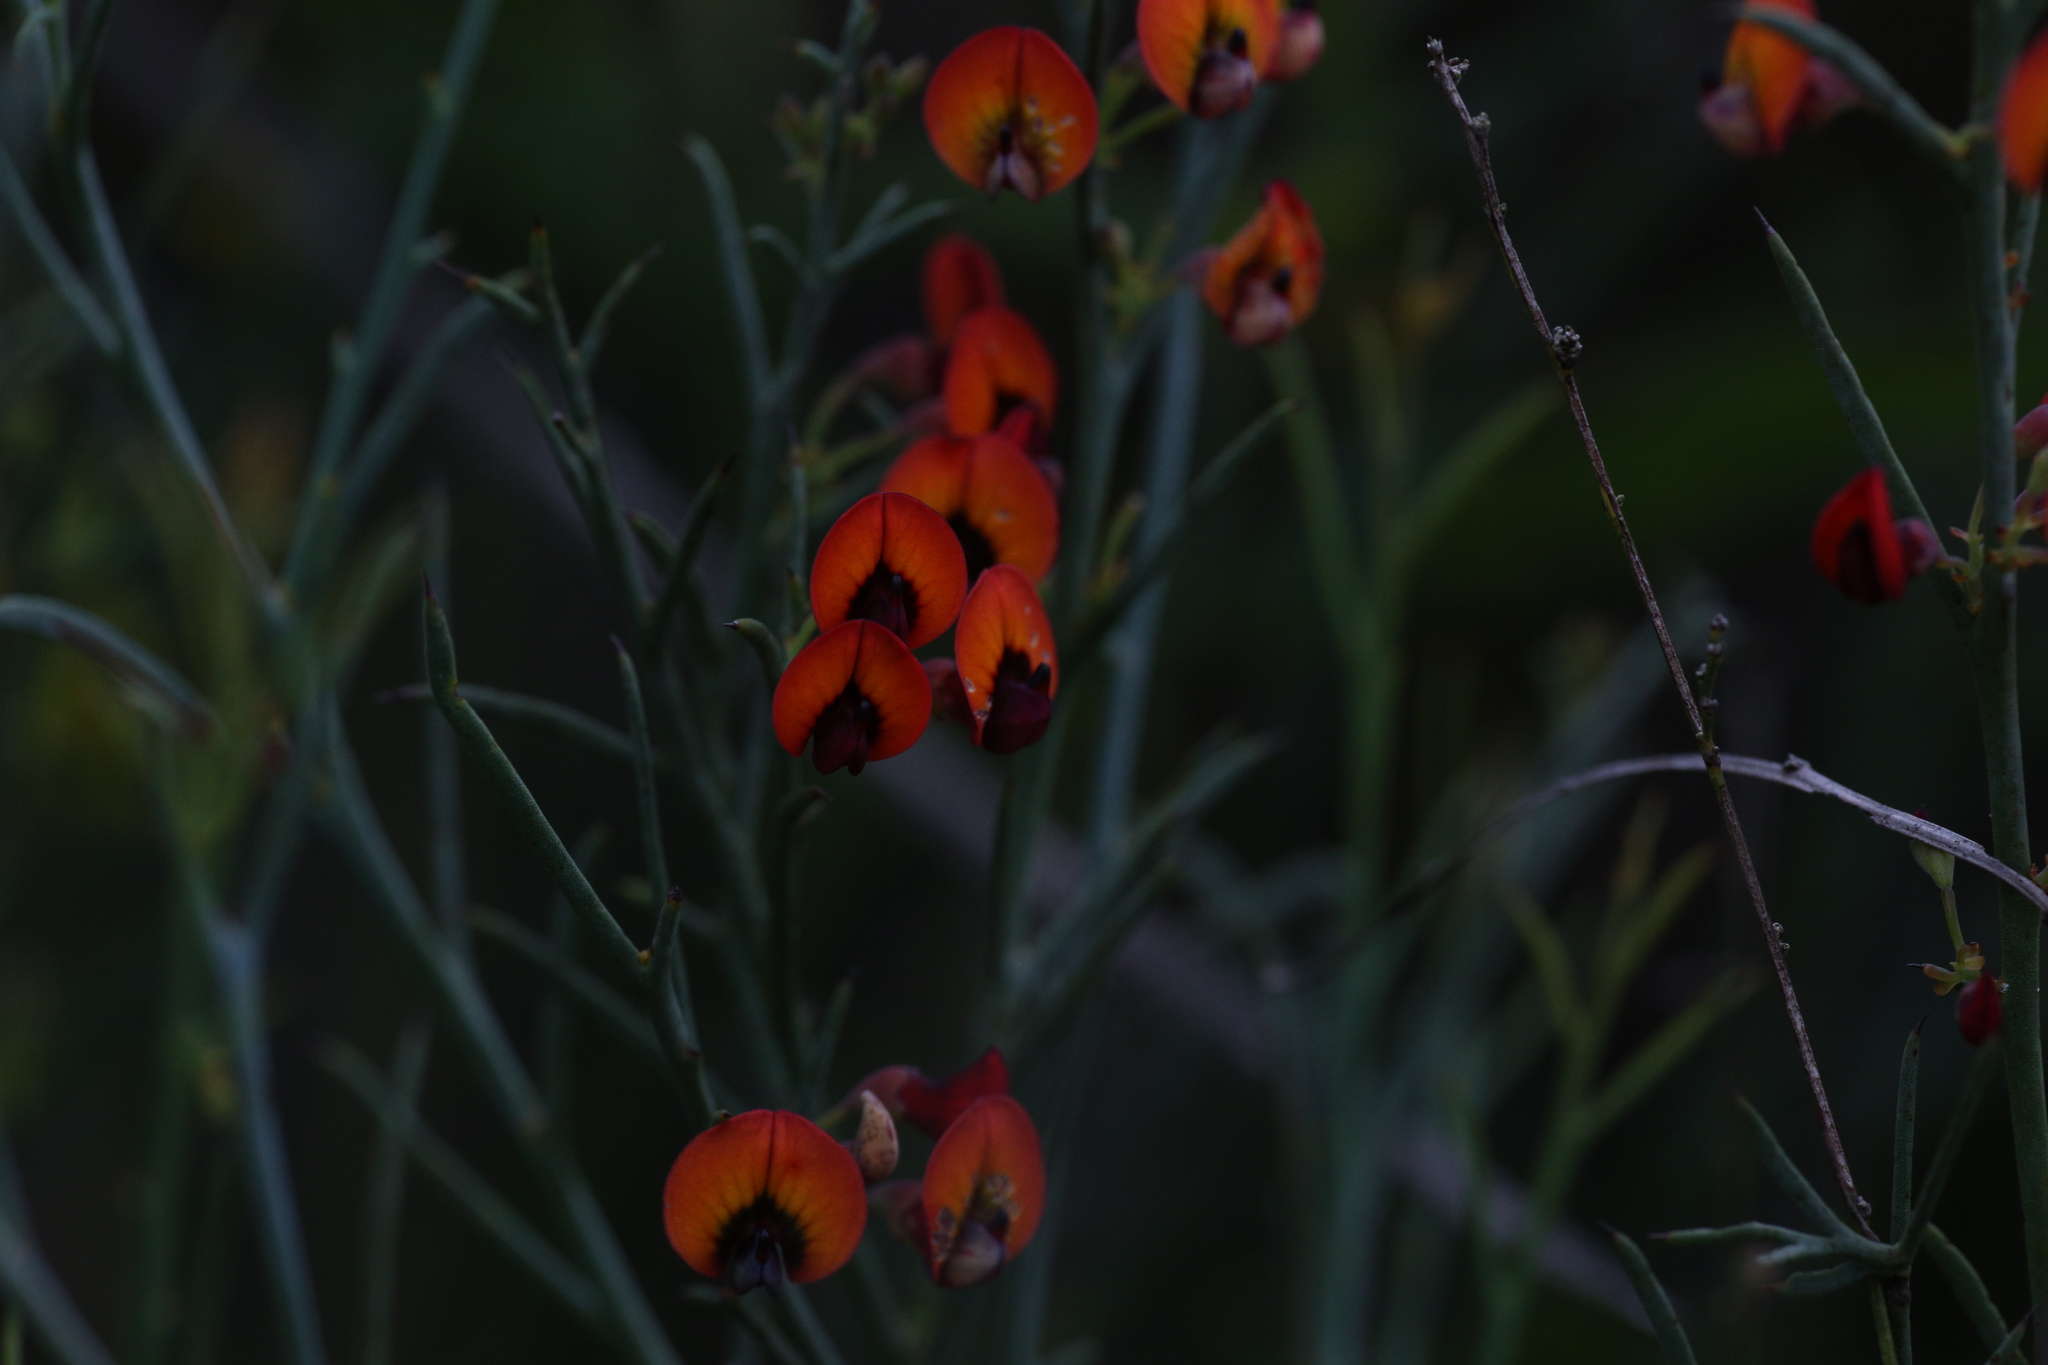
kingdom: Plantae
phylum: Tracheophyta
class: Magnoliopsida
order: Fabales
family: Fabaceae
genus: Daviesia
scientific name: Daviesia incrassata
